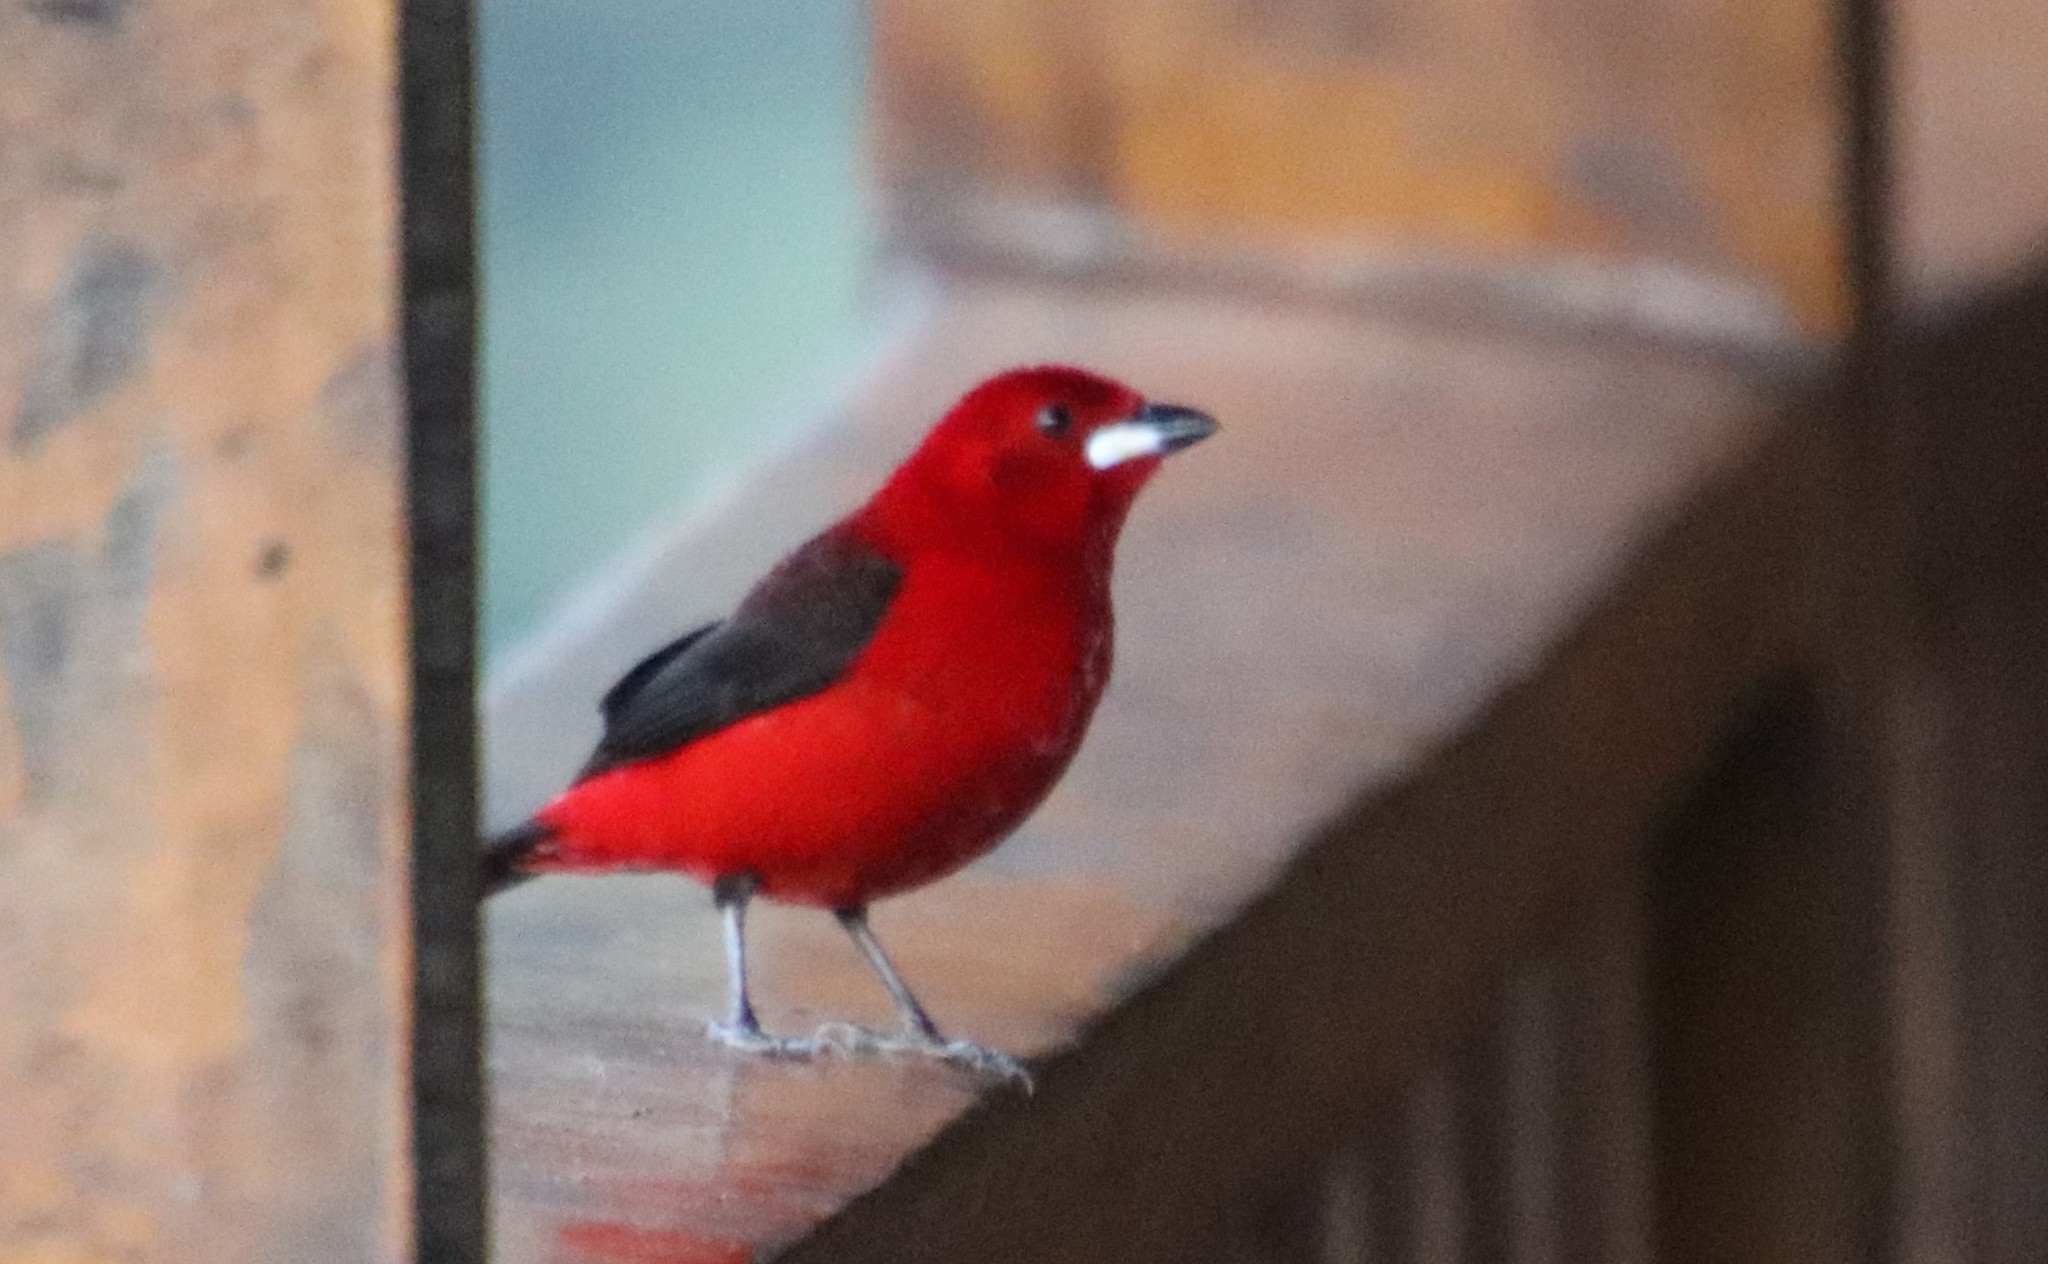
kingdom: Animalia
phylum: Chordata
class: Aves
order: Passeriformes
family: Thraupidae
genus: Ramphocelus
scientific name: Ramphocelus bresilia
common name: Brazilian tanager
